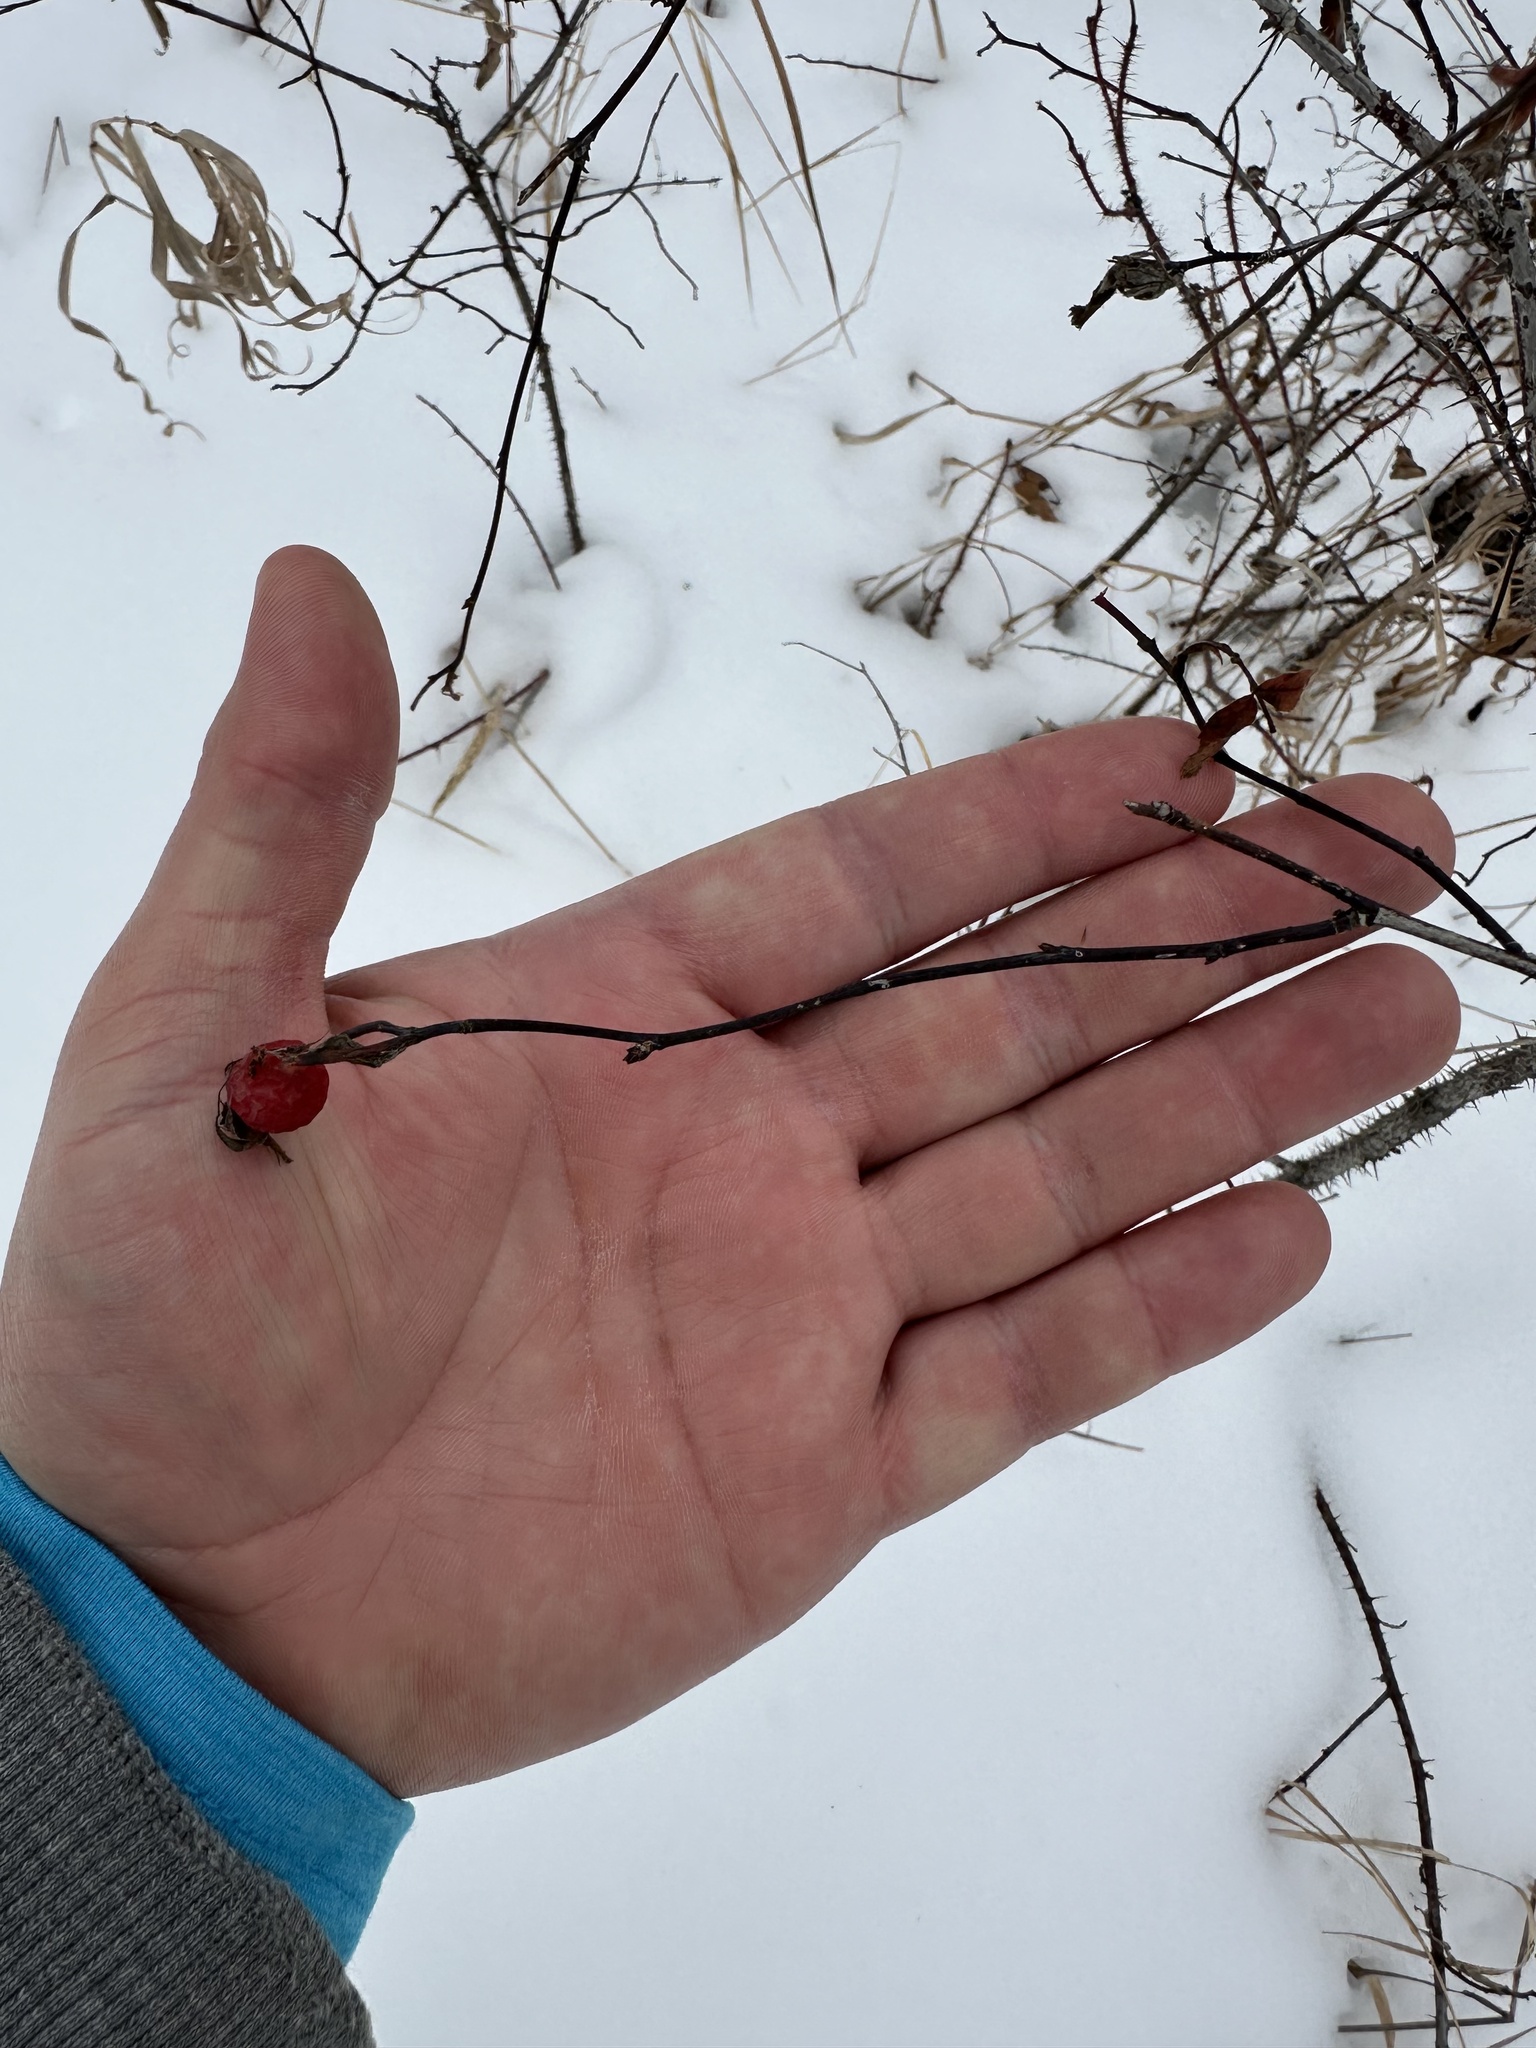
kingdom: Plantae
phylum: Tracheophyta
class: Magnoliopsida
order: Rosales
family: Rosaceae
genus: Rosa
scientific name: Rosa woodsii
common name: Woods's rose
